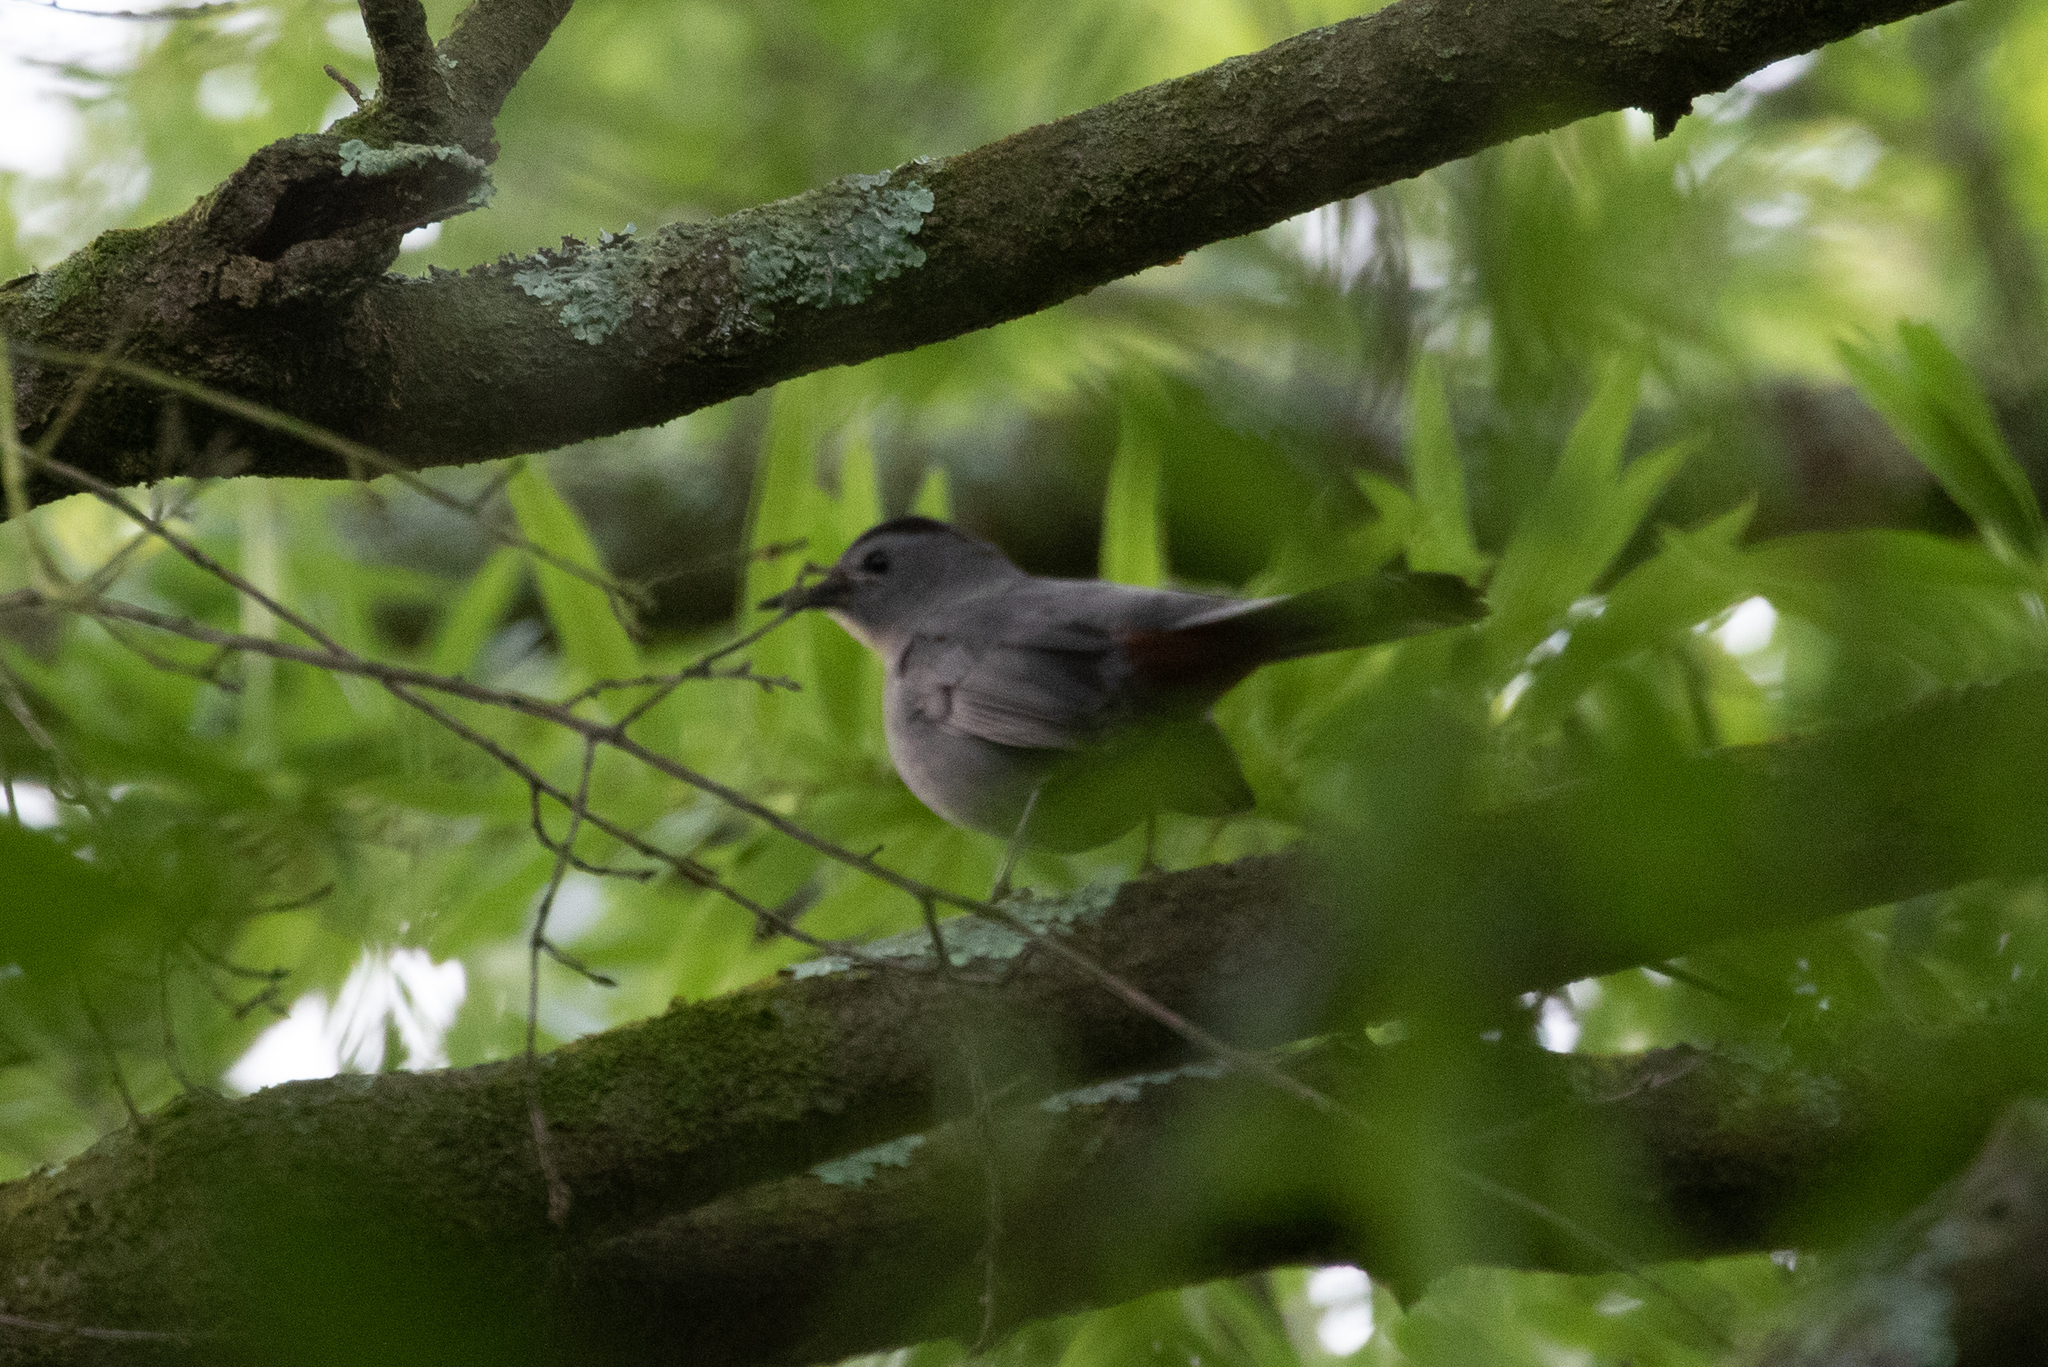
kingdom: Animalia
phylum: Chordata
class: Aves
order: Passeriformes
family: Mimidae
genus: Dumetella
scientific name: Dumetella carolinensis
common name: Gray catbird
